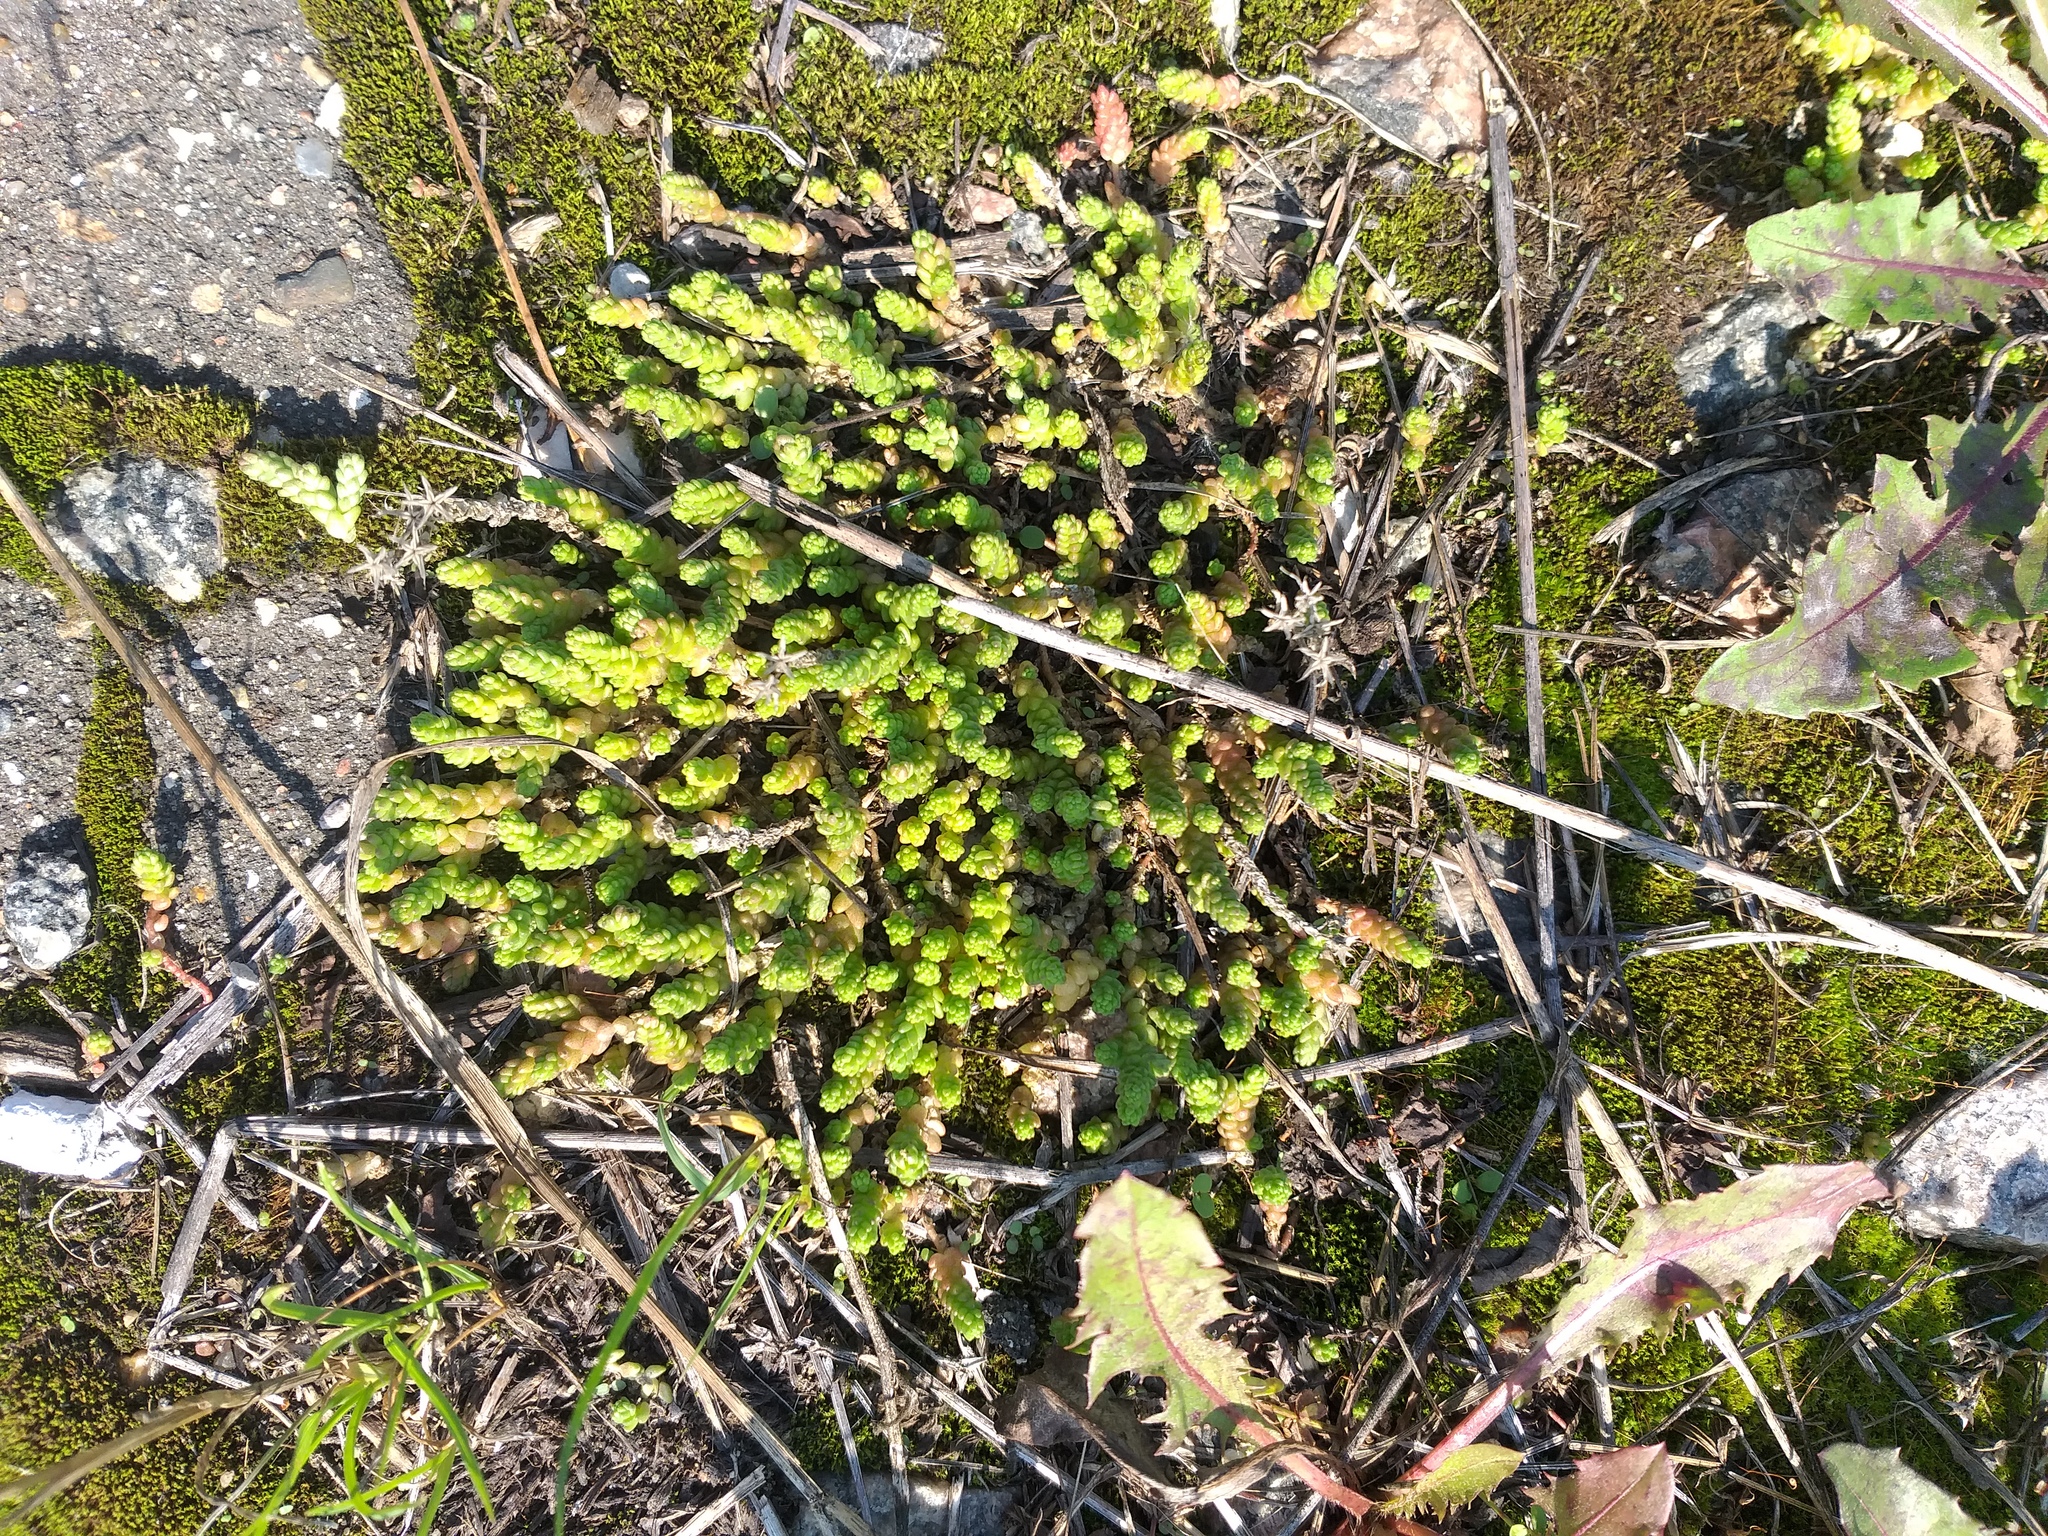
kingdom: Plantae
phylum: Tracheophyta
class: Magnoliopsida
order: Saxifragales
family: Crassulaceae
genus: Sedum
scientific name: Sedum acre
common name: Biting stonecrop
